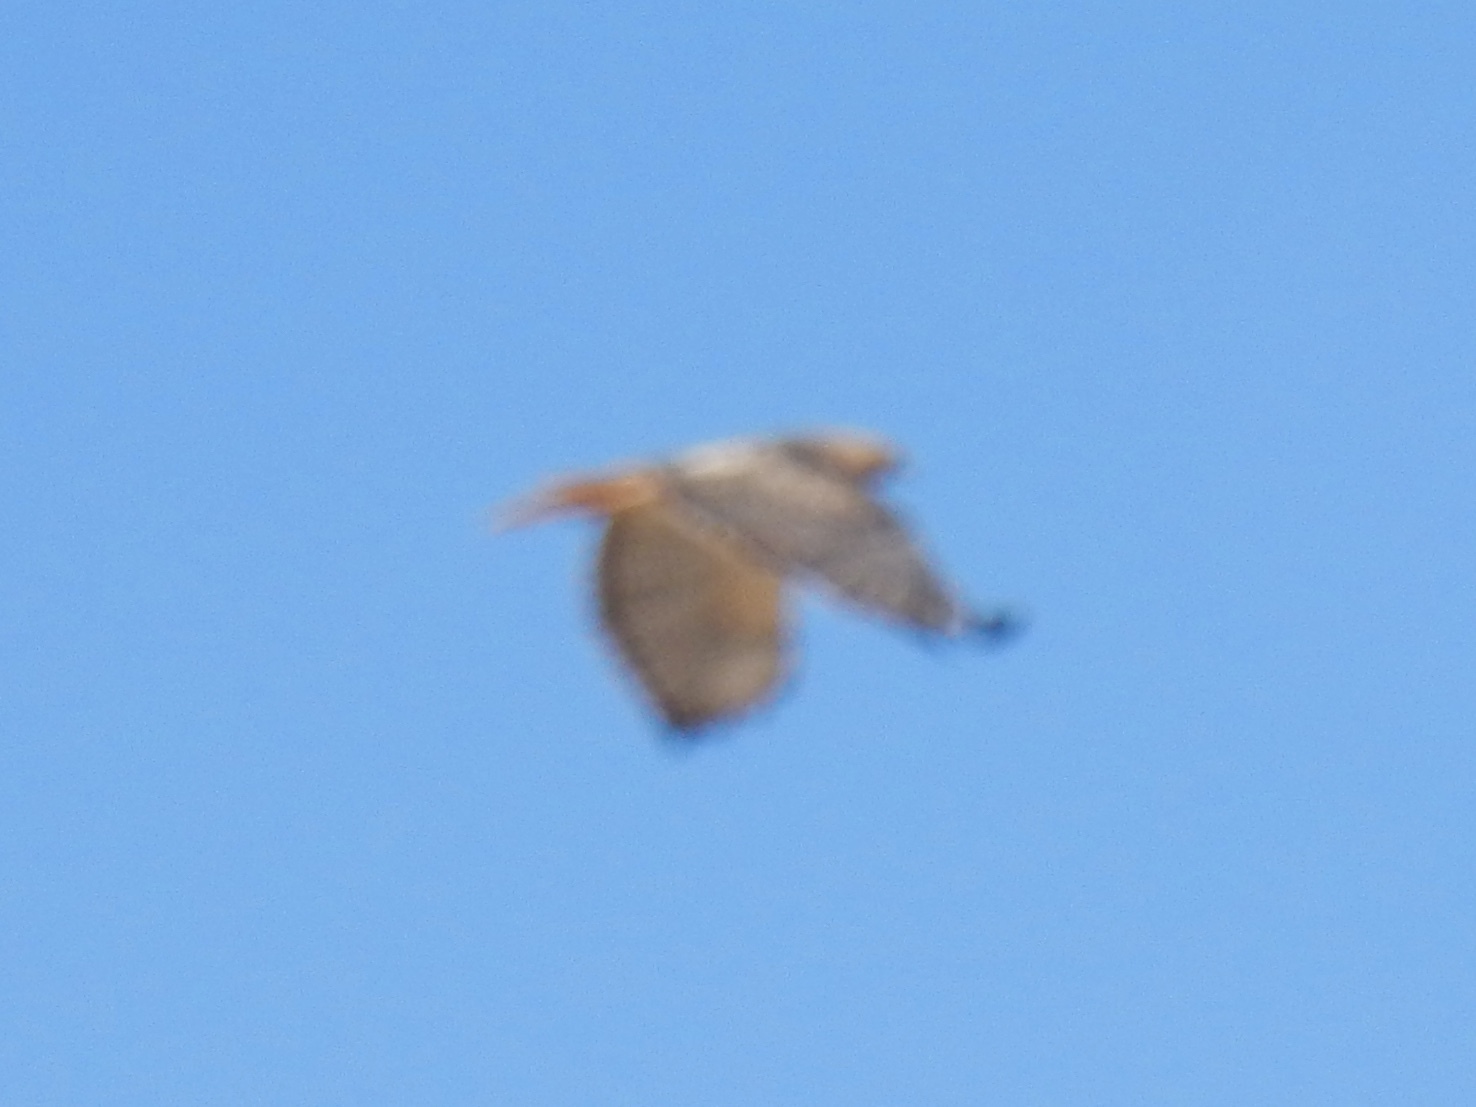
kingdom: Animalia
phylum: Chordata
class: Aves
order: Accipitriformes
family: Accipitridae
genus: Buteo
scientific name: Buteo jamaicensis
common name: Red-tailed hawk
